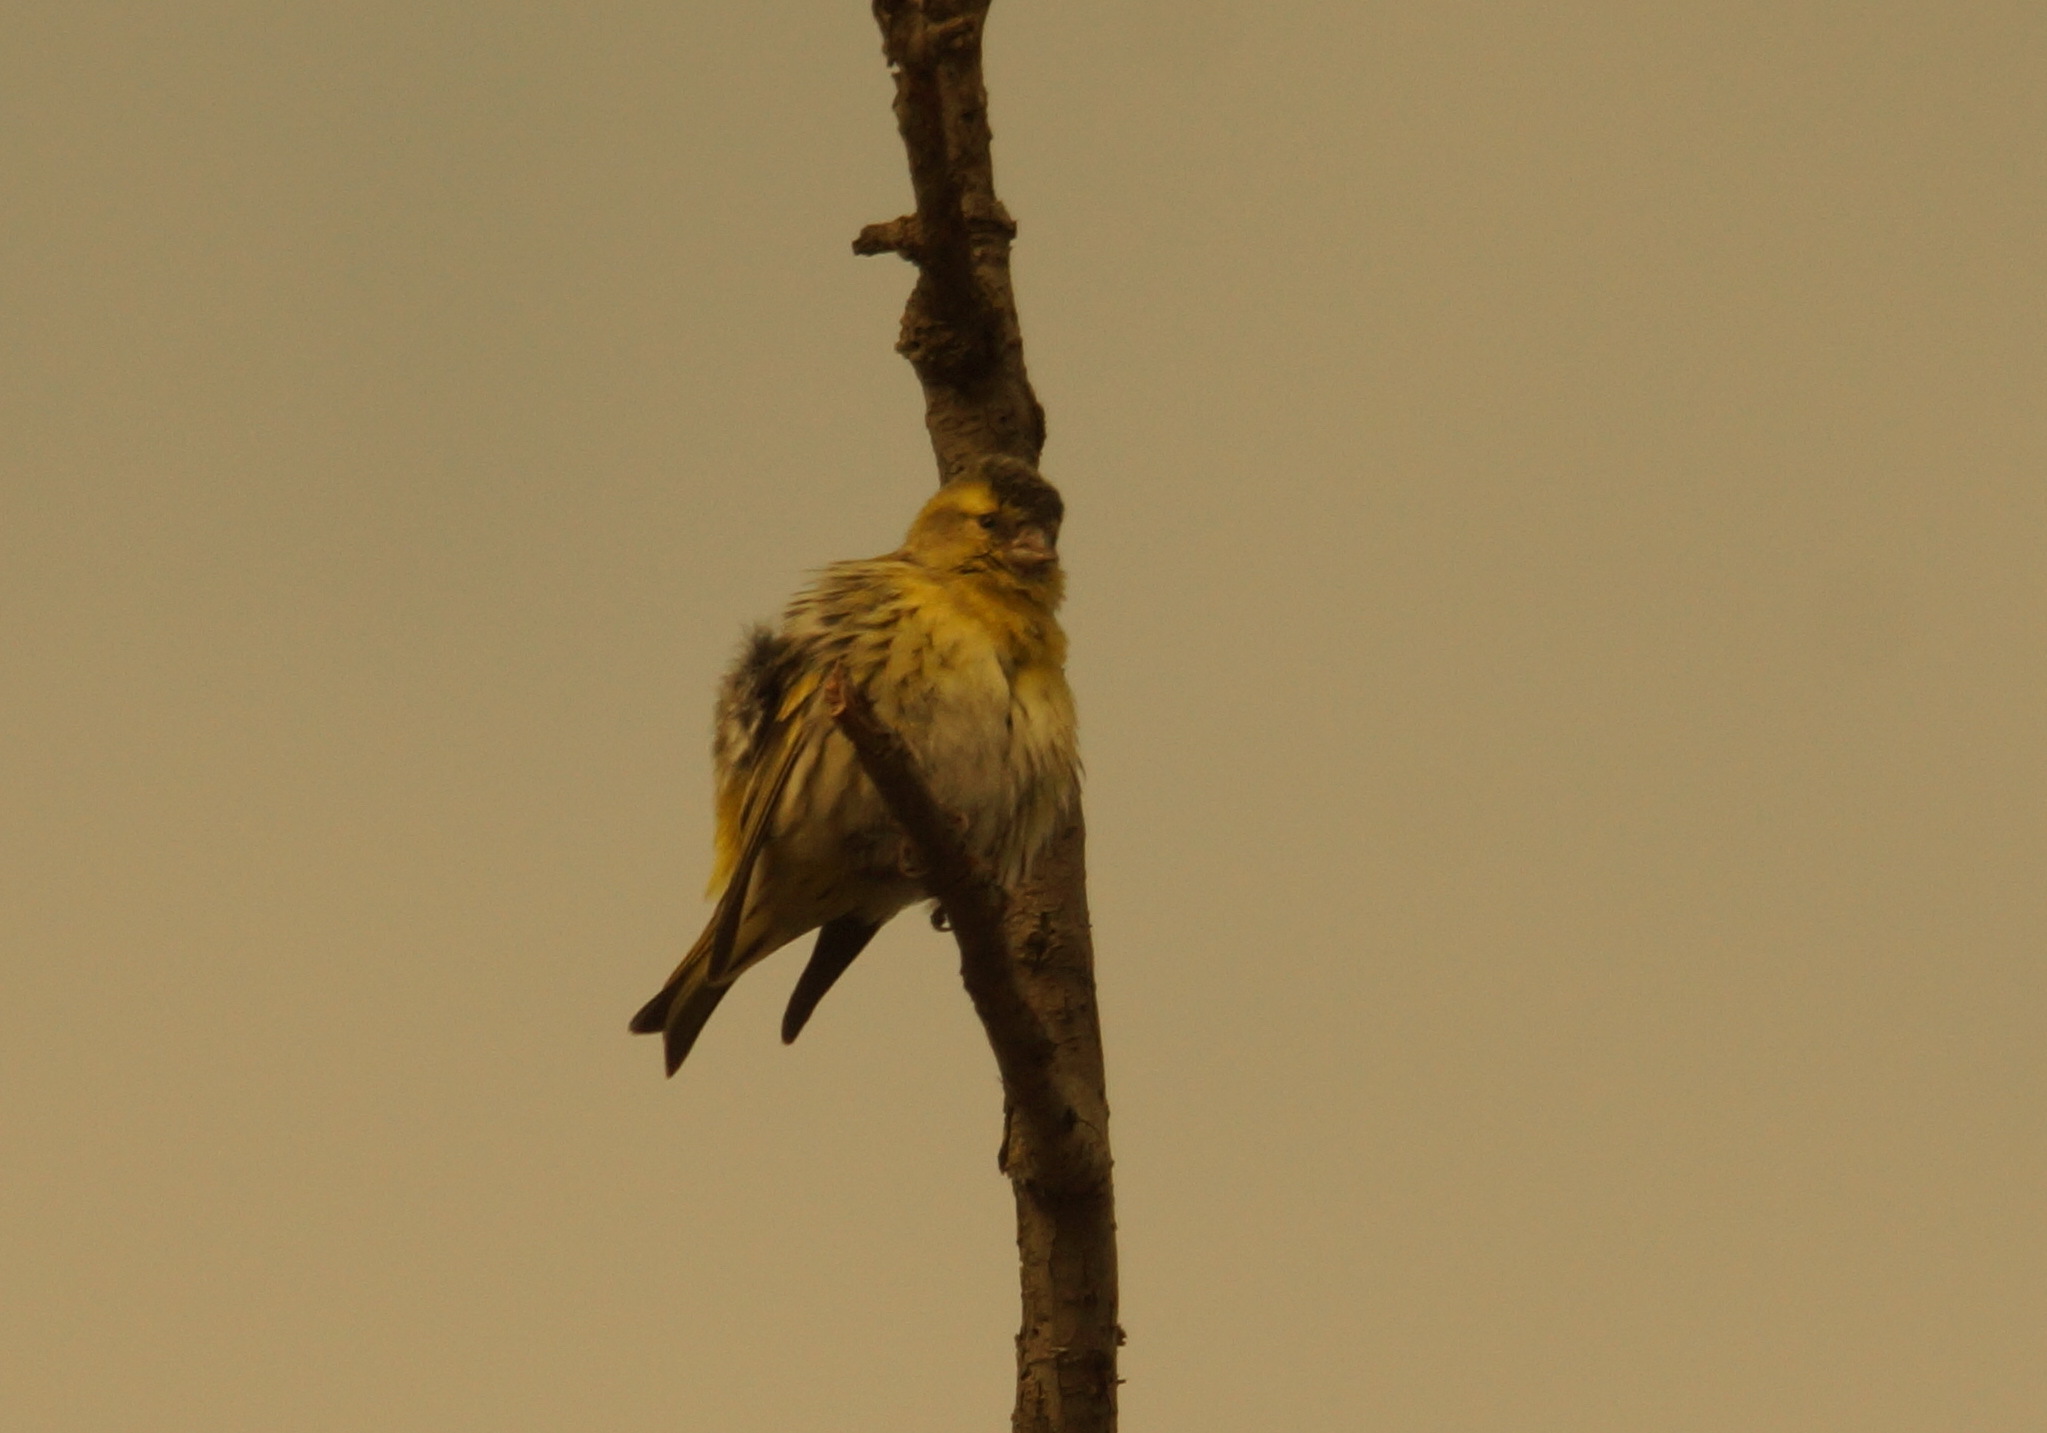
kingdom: Animalia
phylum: Chordata
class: Aves
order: Passeriformes
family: Fringillidae
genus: Spinus
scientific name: Spinus spinus
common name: Eurasian siskin
